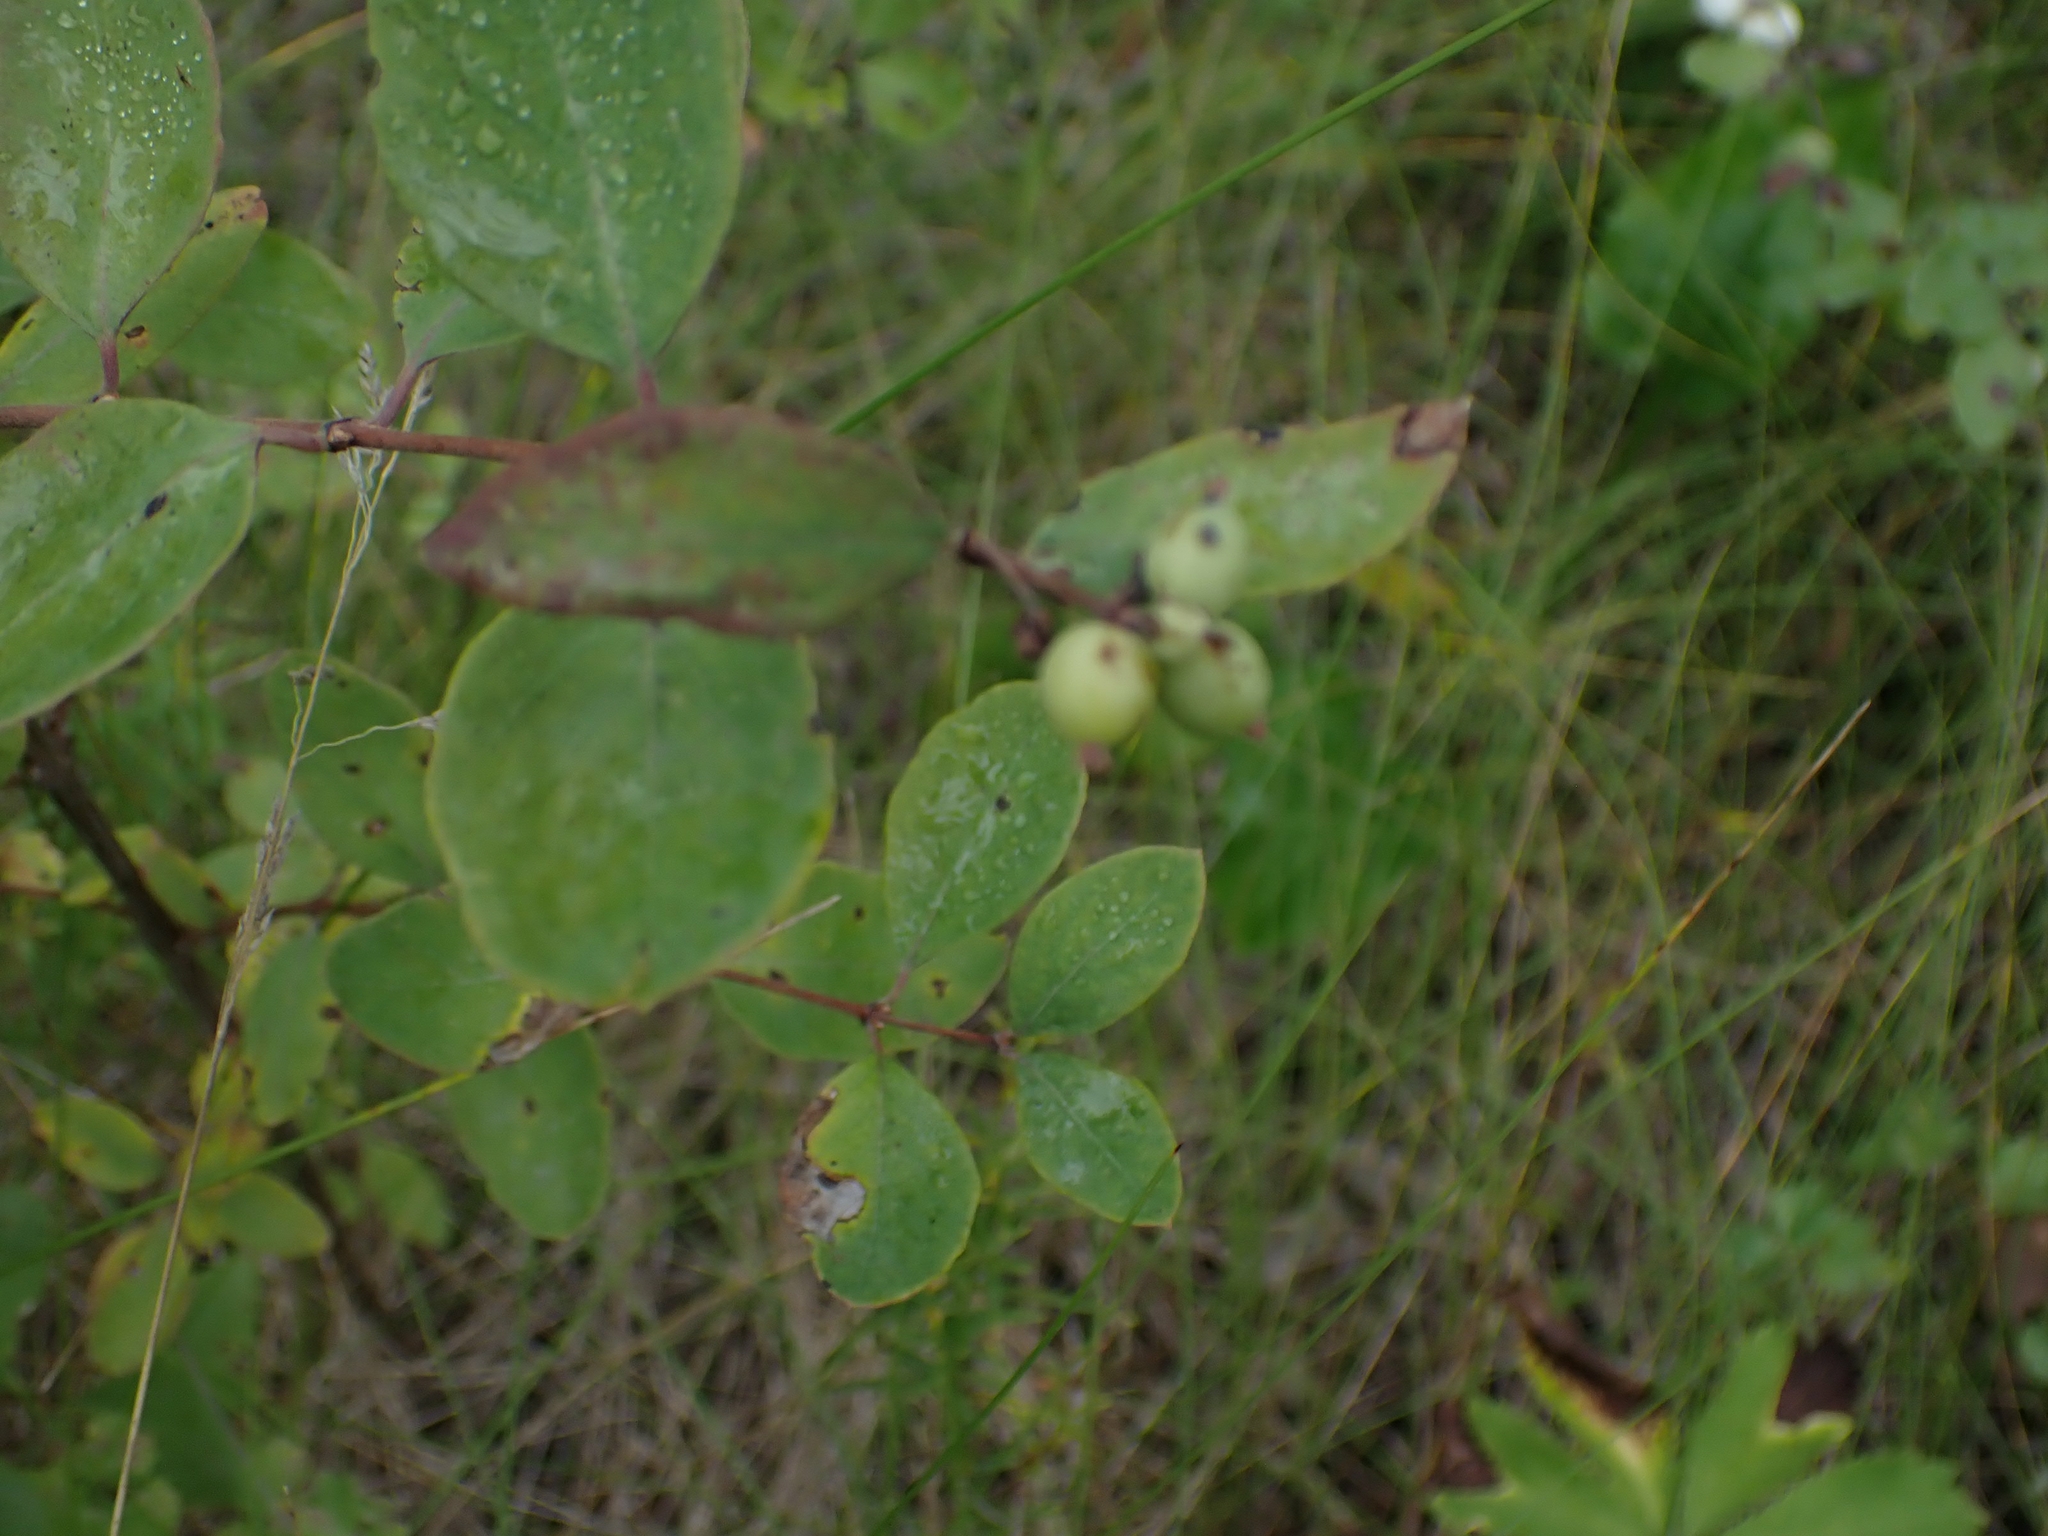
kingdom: Plantae
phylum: Tracheophyta
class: Magnoliopsida
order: Dipsacales
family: Caprifoliaceae
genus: Symphoricarpos
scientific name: Symphoricarpos occidentalis
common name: Wolfberry
